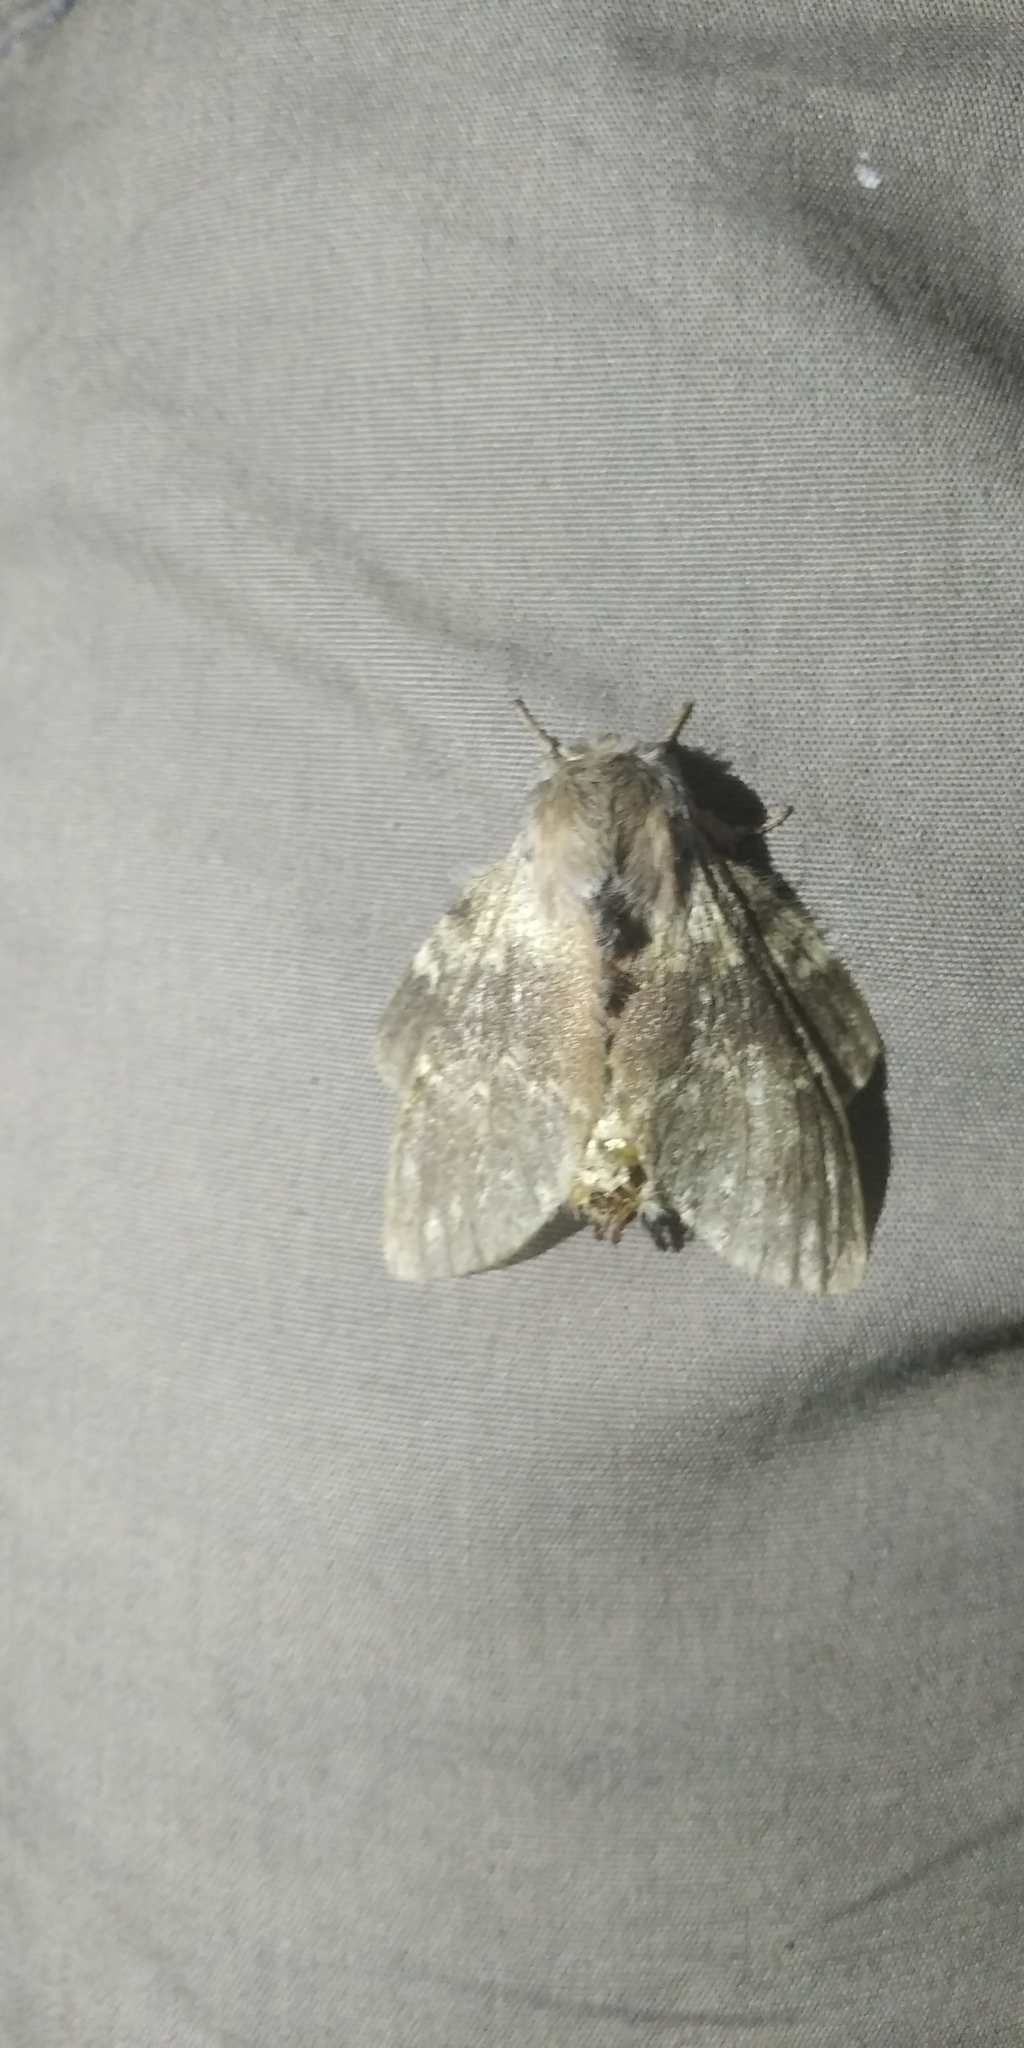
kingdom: Animalia
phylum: Arthropoda
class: Insecta
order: Lepidoptera
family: Notodontidae
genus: Stauropus
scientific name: Stauropus fagi
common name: Lobster moth
